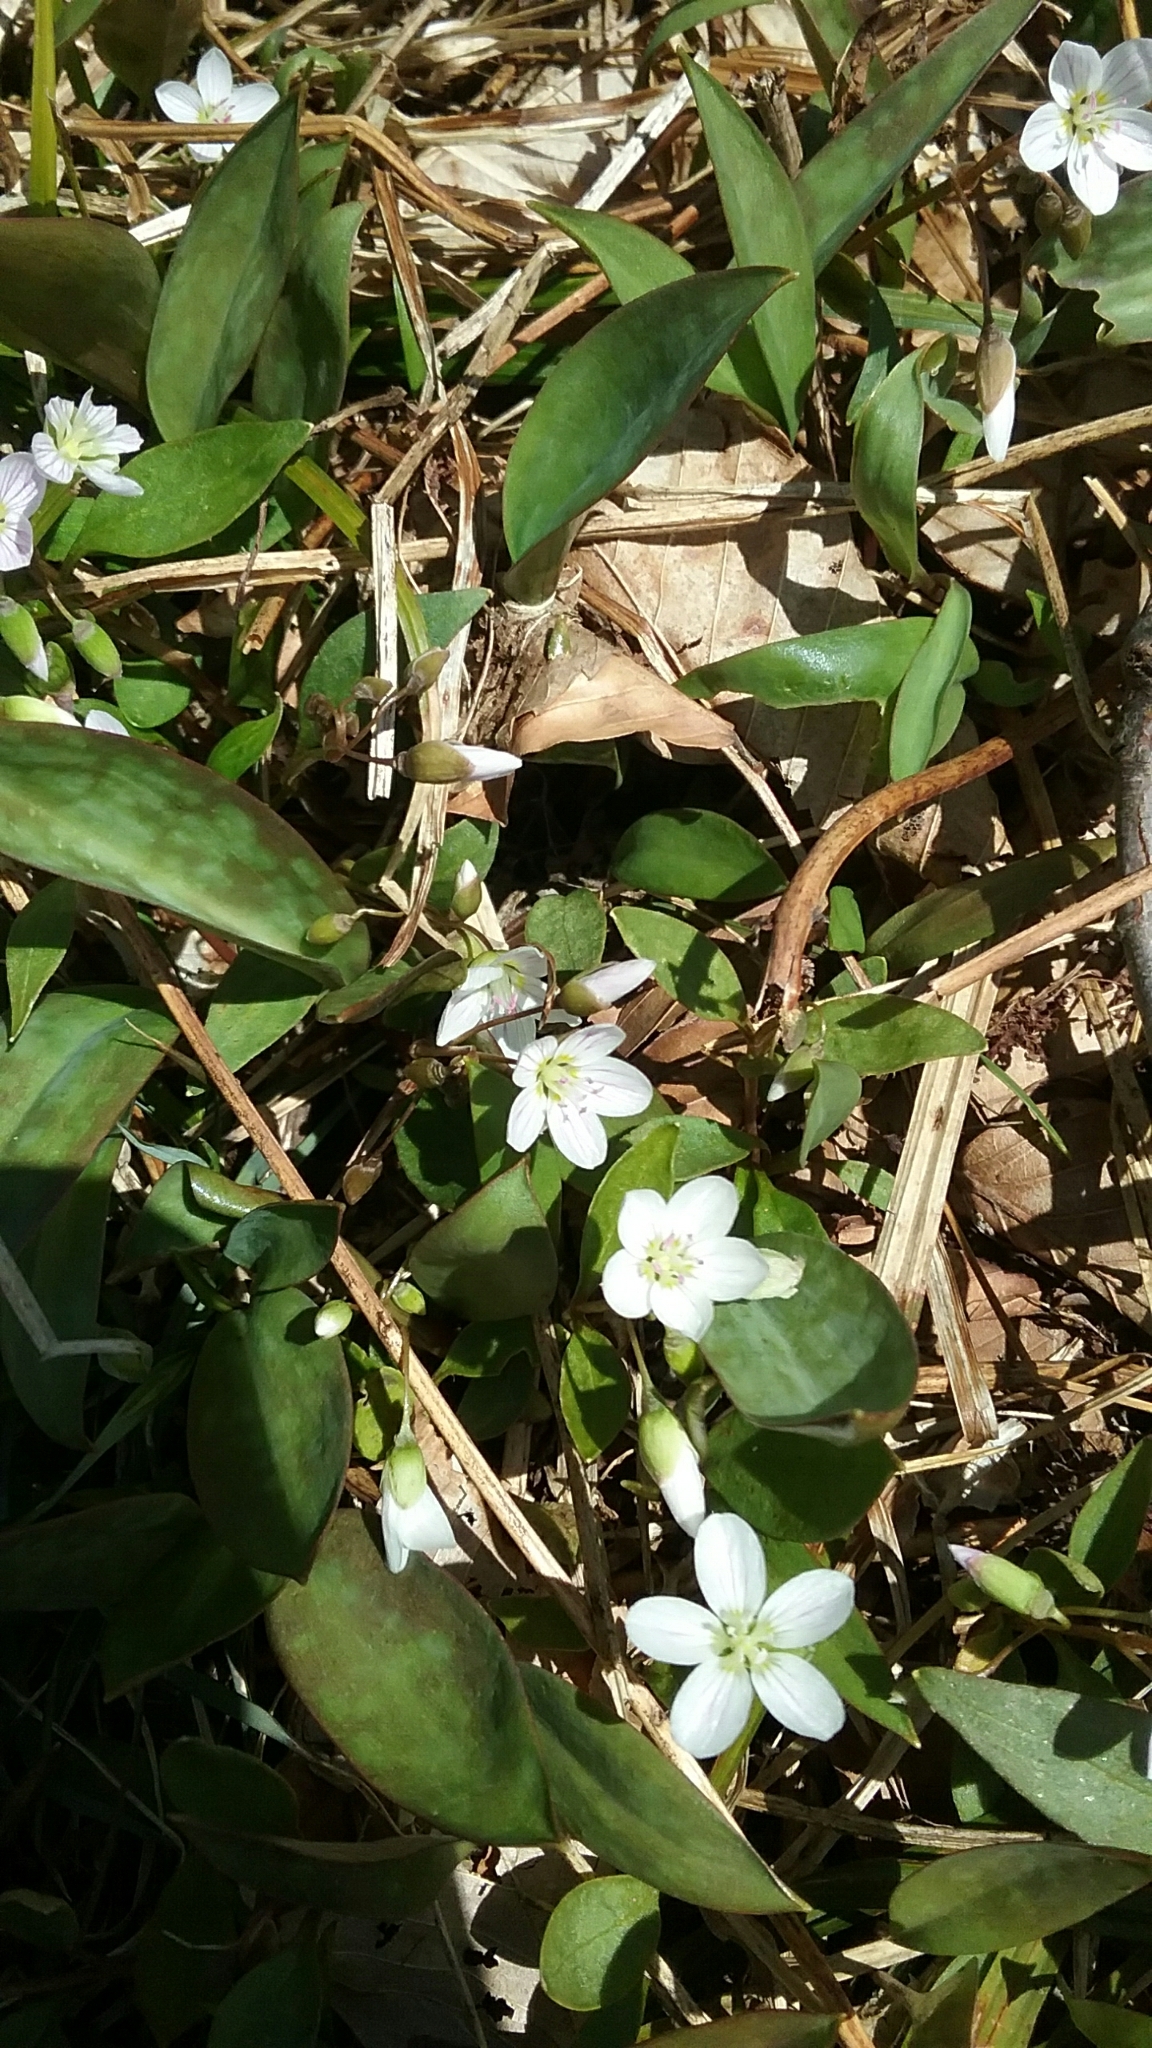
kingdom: Plantae
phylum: Tracheophyta
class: Magnoliopsida
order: Caryophyllales
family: Montiaceae
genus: Claytonia
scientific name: Claytonia caroliniana
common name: Carolina spring beauty
